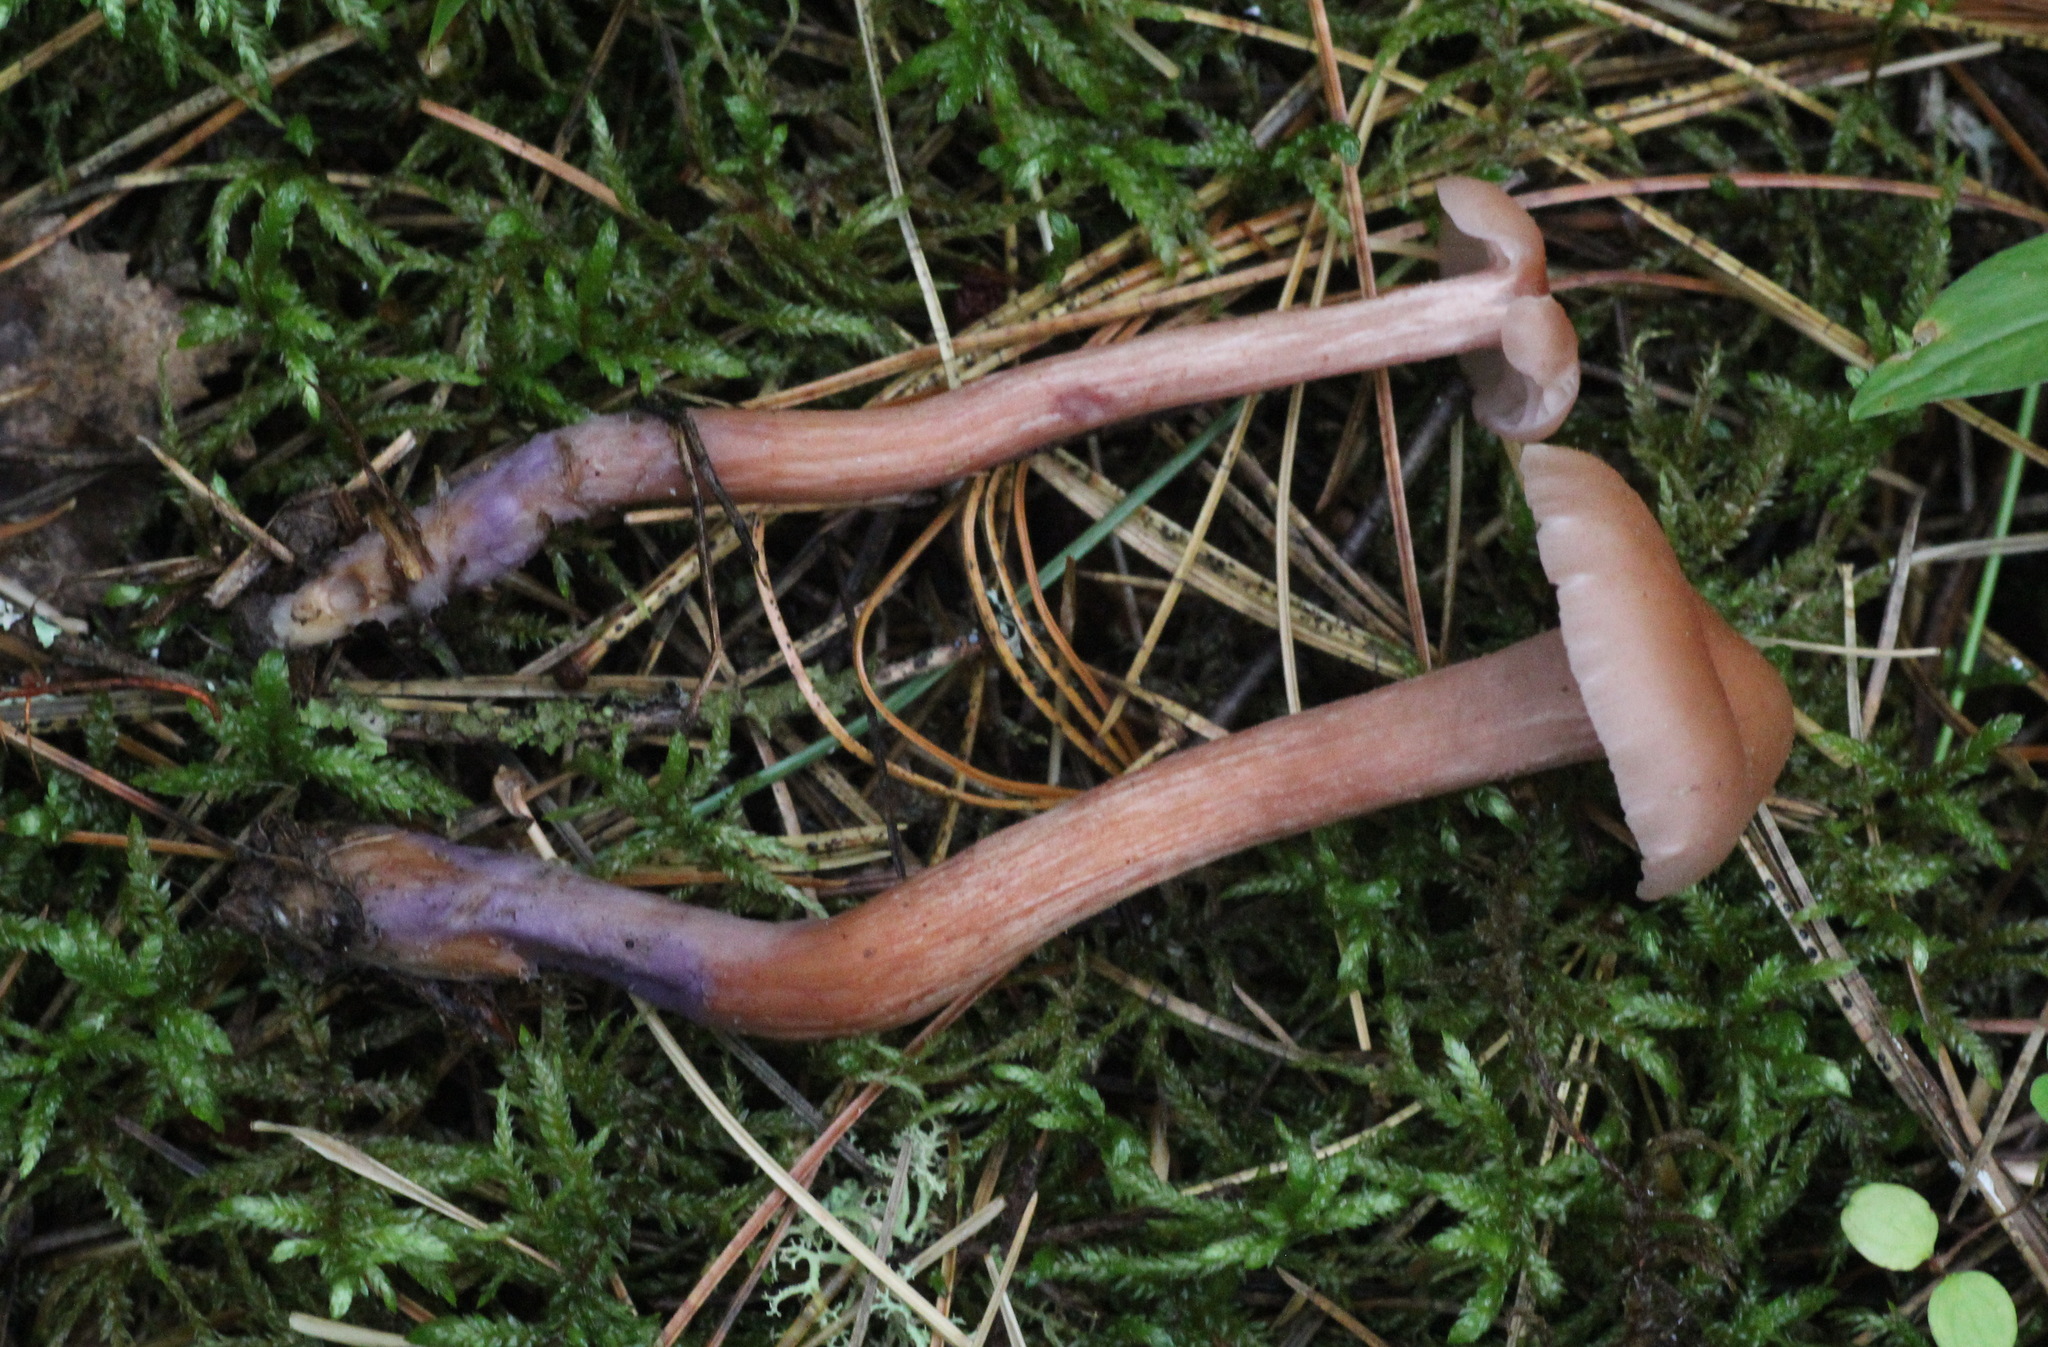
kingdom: Fungi
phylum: Basidiomycota
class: Agaricomycetes
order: Agaricales
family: Hydnangiaceae
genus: Laccaria
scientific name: Laccaria bicolor
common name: Bicoloured deceiver
